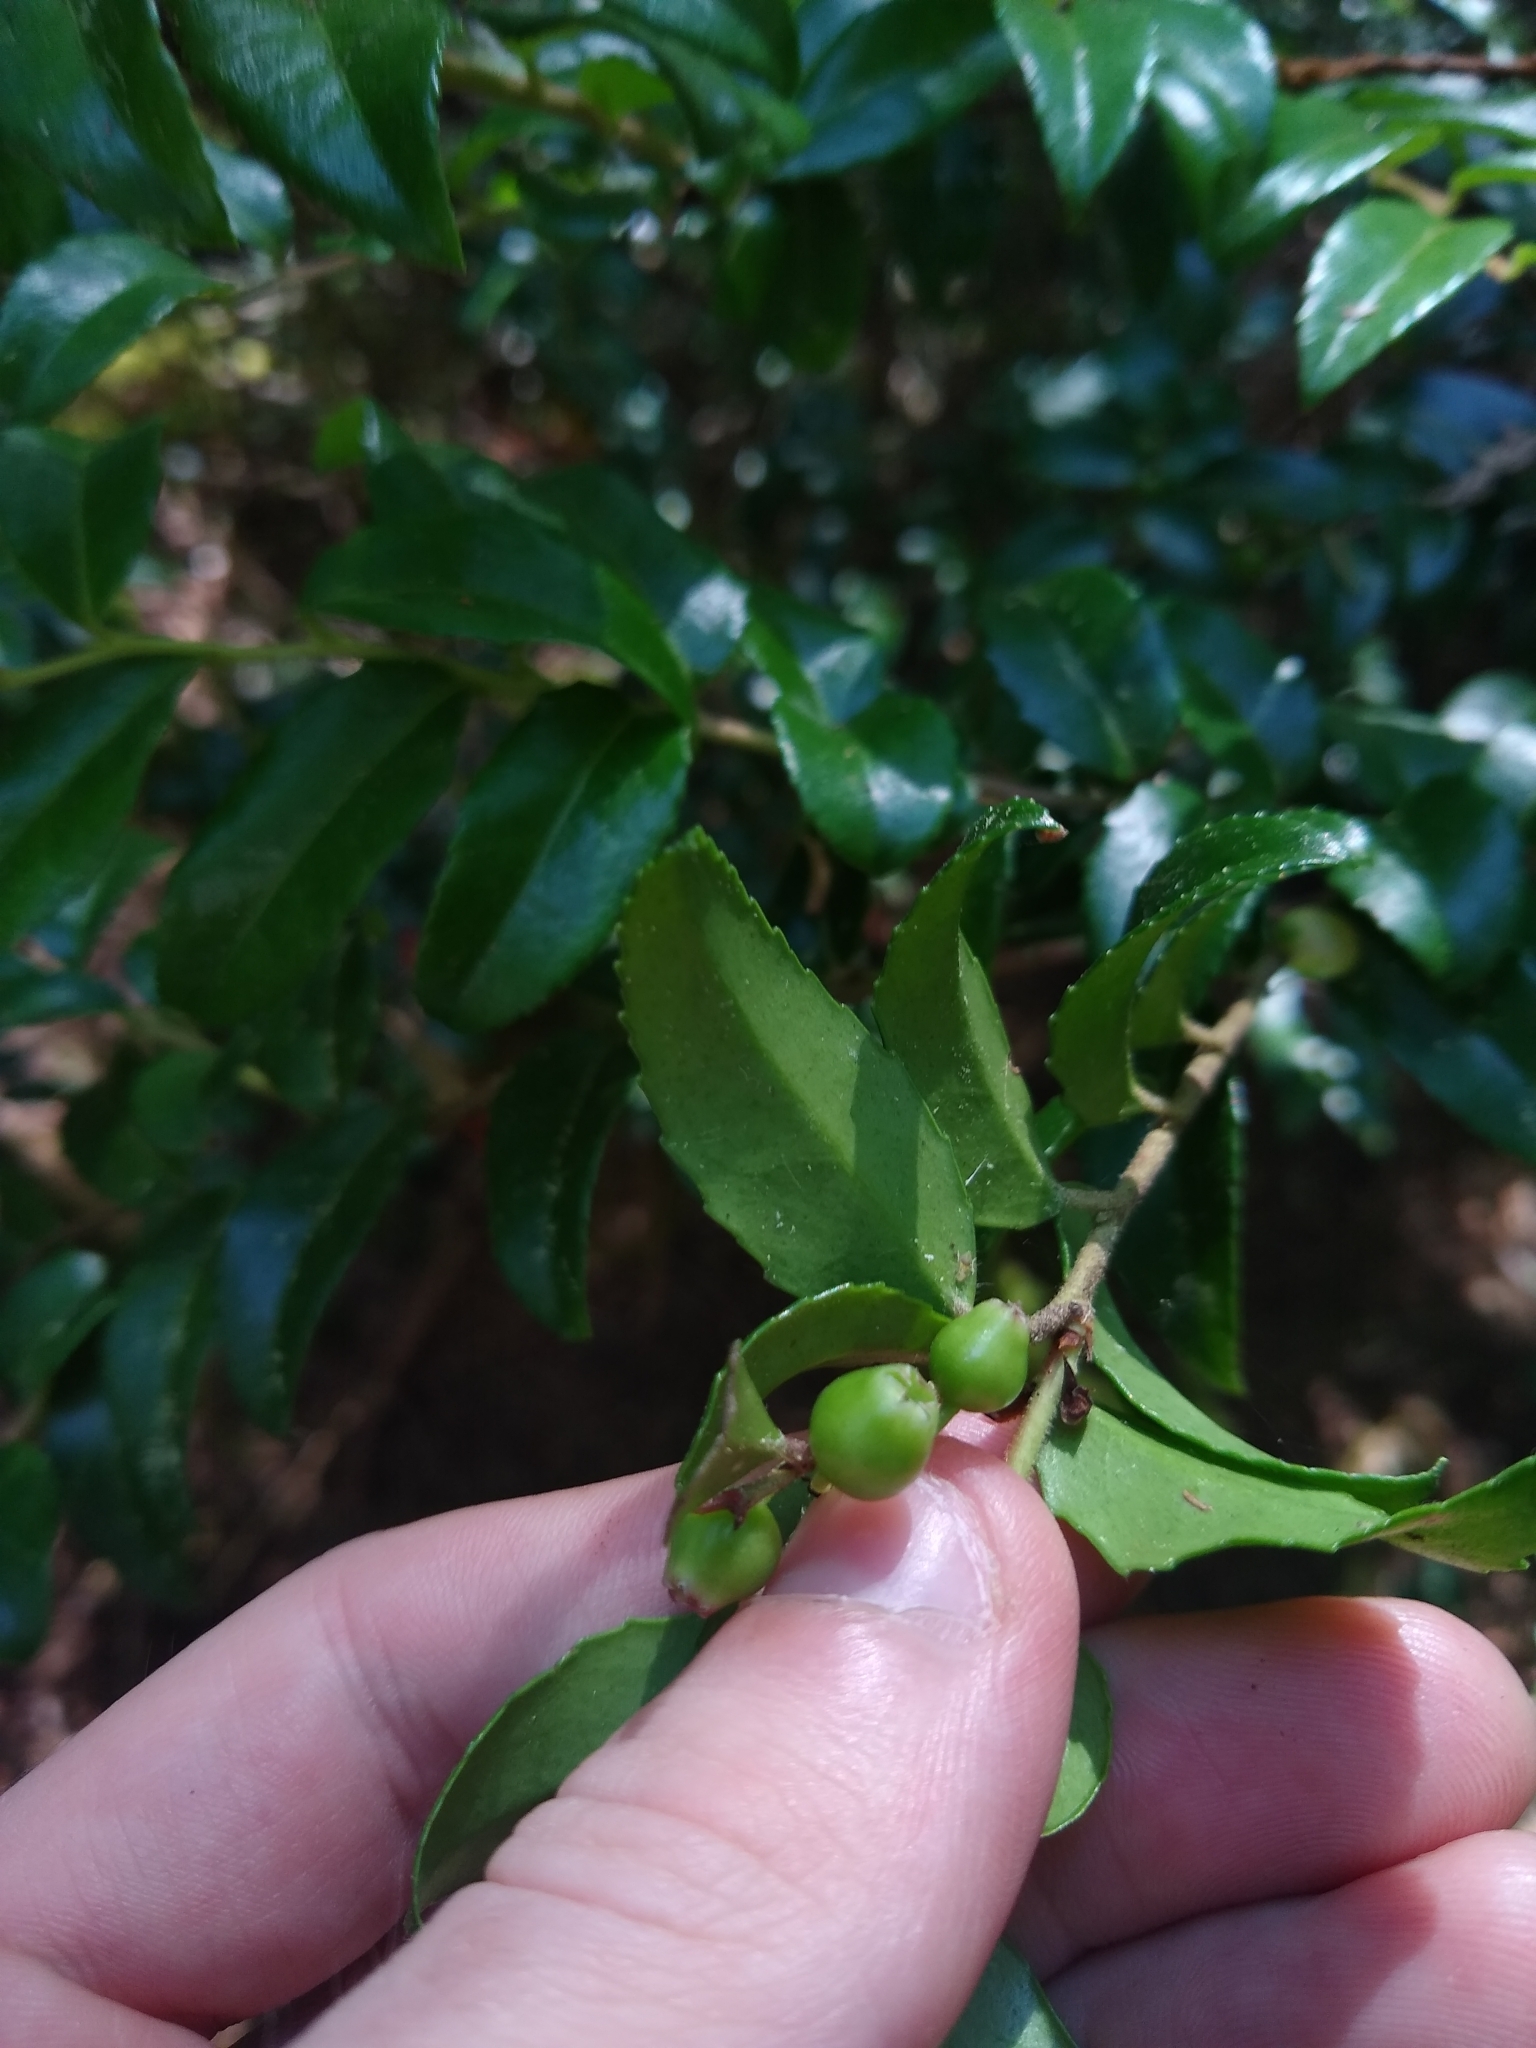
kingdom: Plantae
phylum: Tracheophyta
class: Magnoliopsida
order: Ericales
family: Ericaceae
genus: Vaccinium
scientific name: Vaccinium ovatum
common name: California-huckleberry
